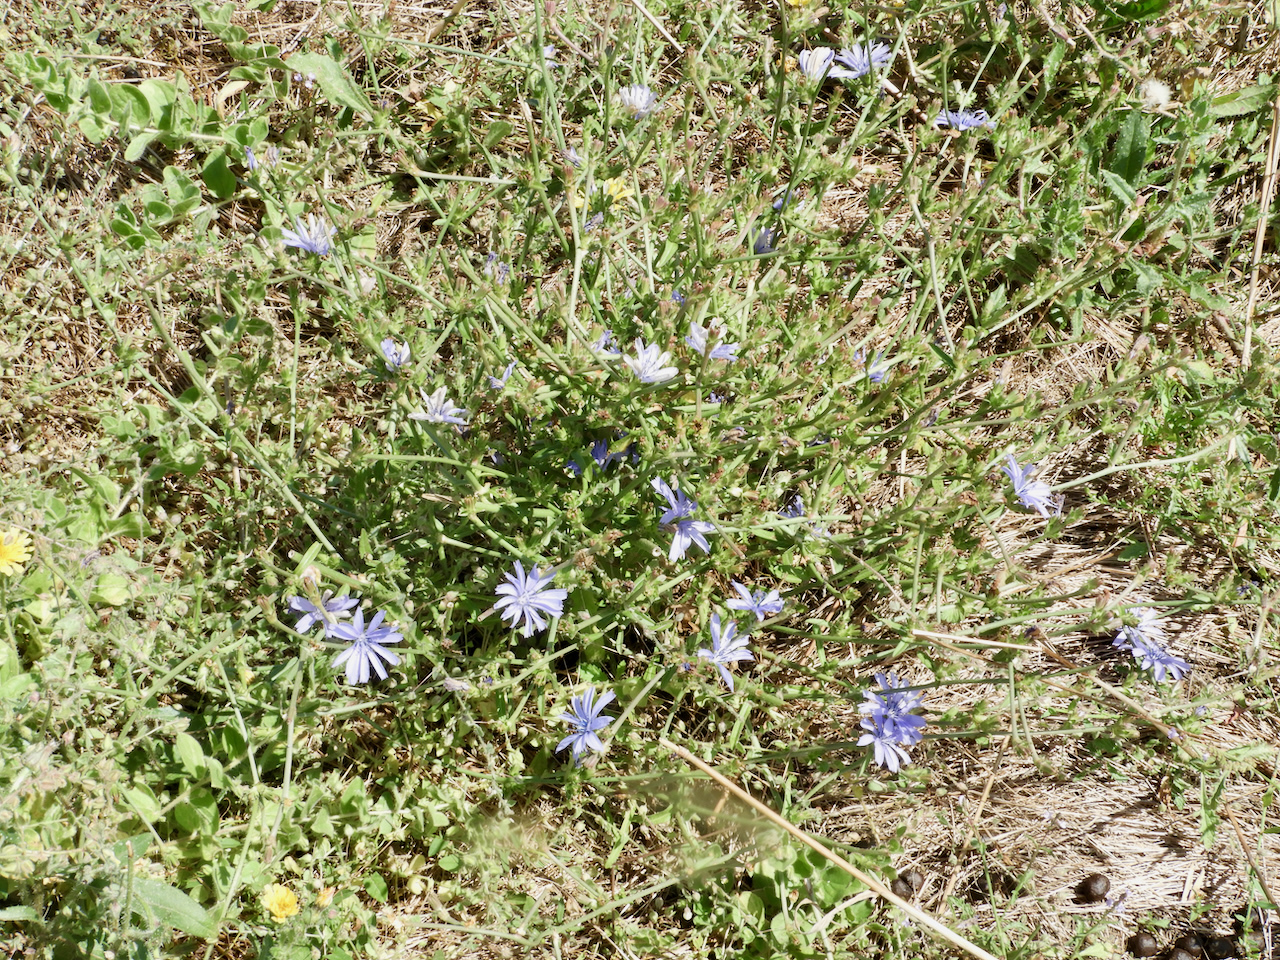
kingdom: Plantae
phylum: Tracheophyta
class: Magnoliopsida
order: Asterales
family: Asteraceae
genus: Cichorium
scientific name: Cichorium intybus
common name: Chicory
